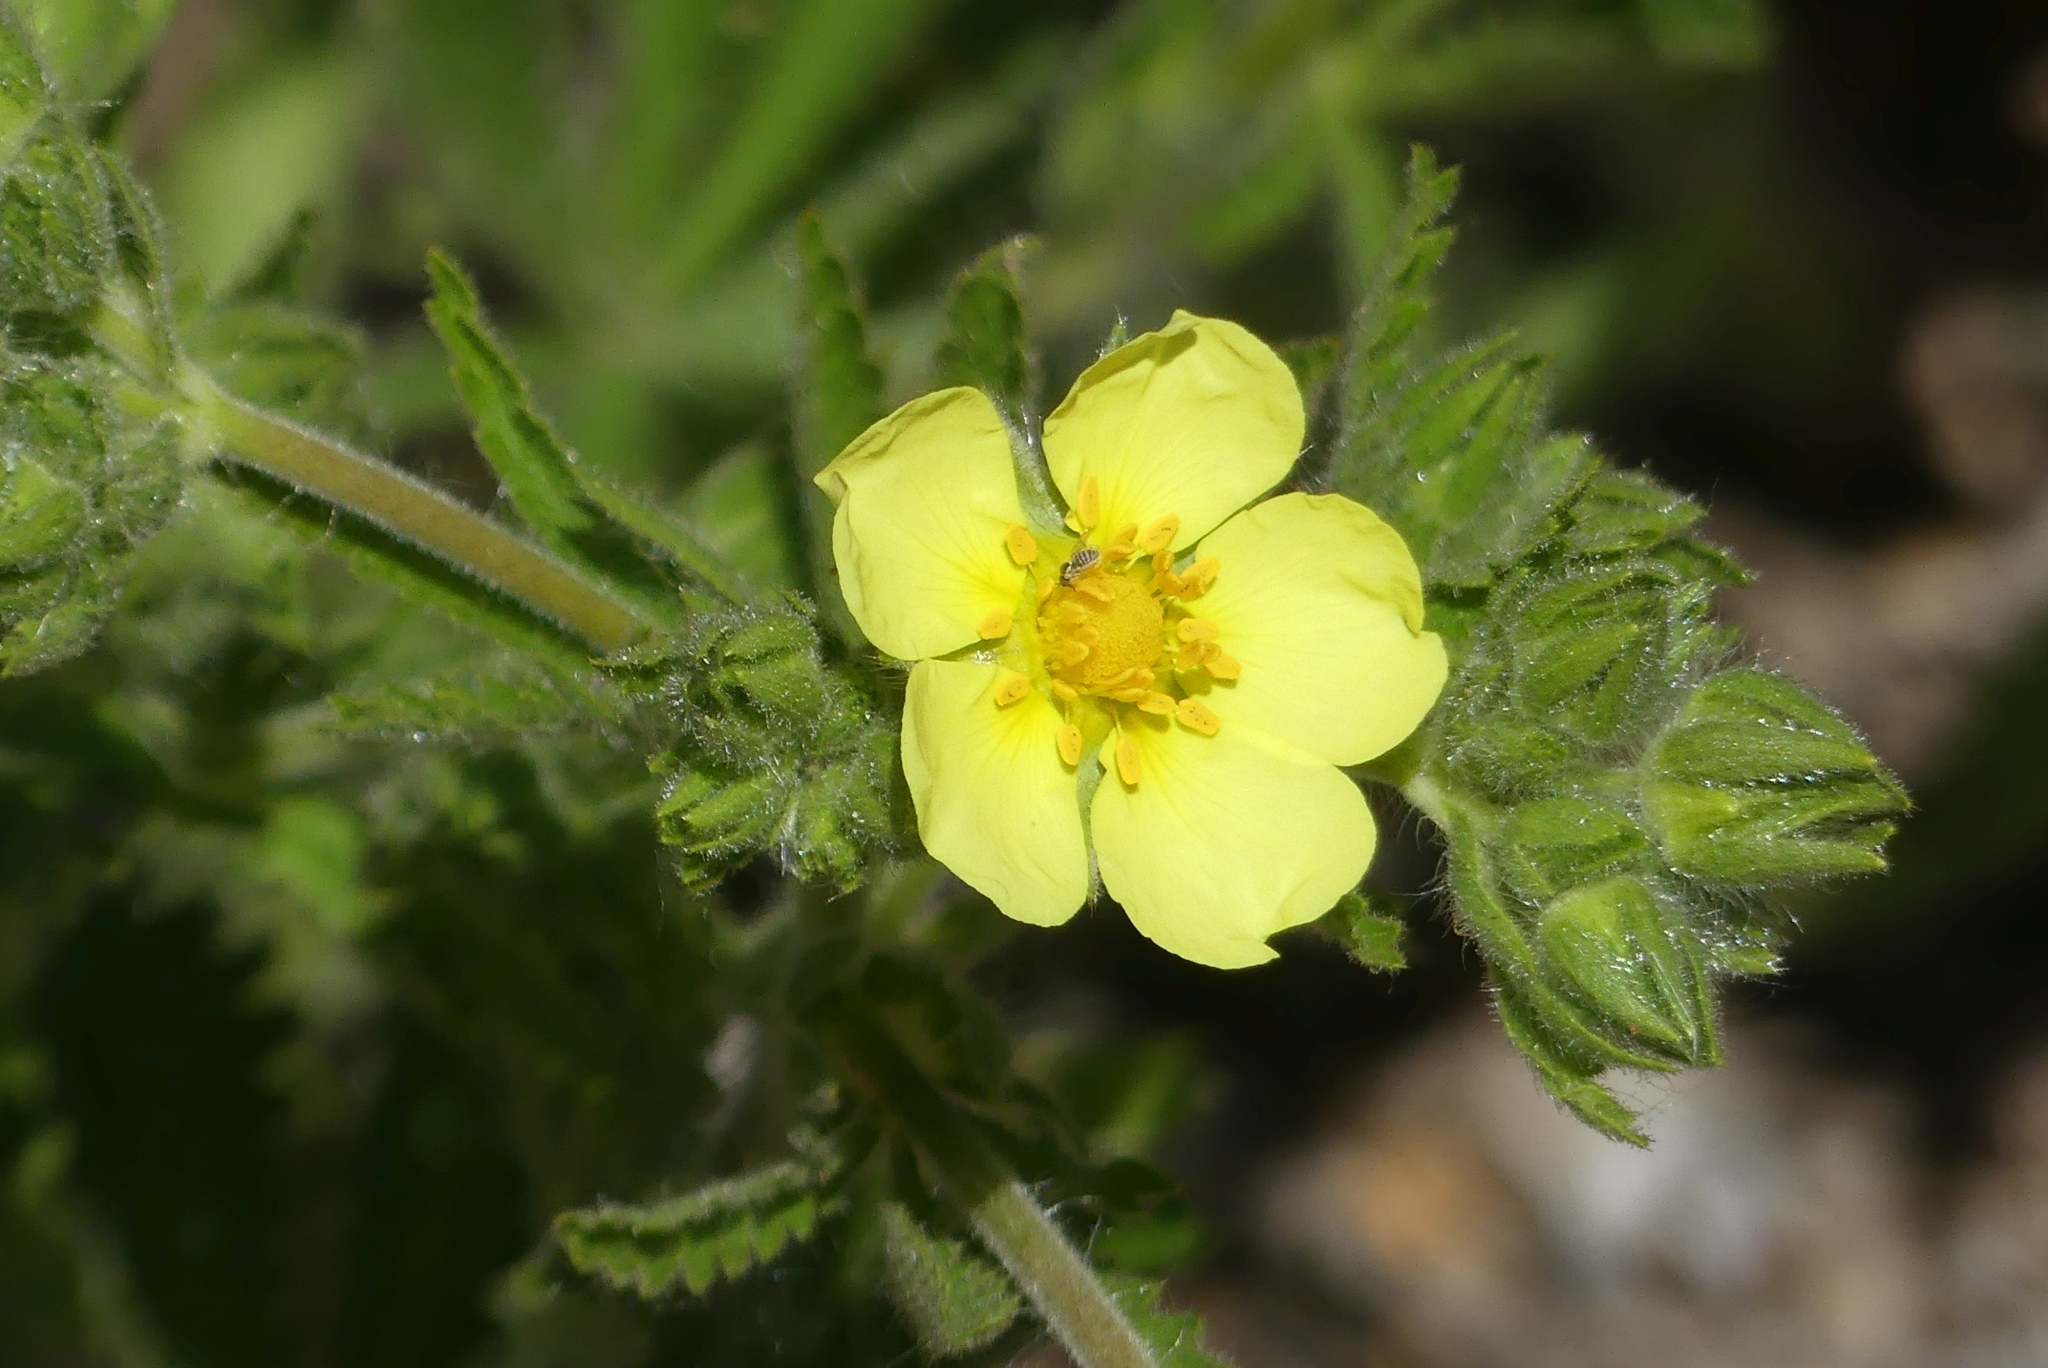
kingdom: Plantae
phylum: Tracheophyta
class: Magnoliopsida
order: Rosales
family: Rosaceae
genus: Potentilla
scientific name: Potentilla recta
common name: Sulphur cinquefoil
